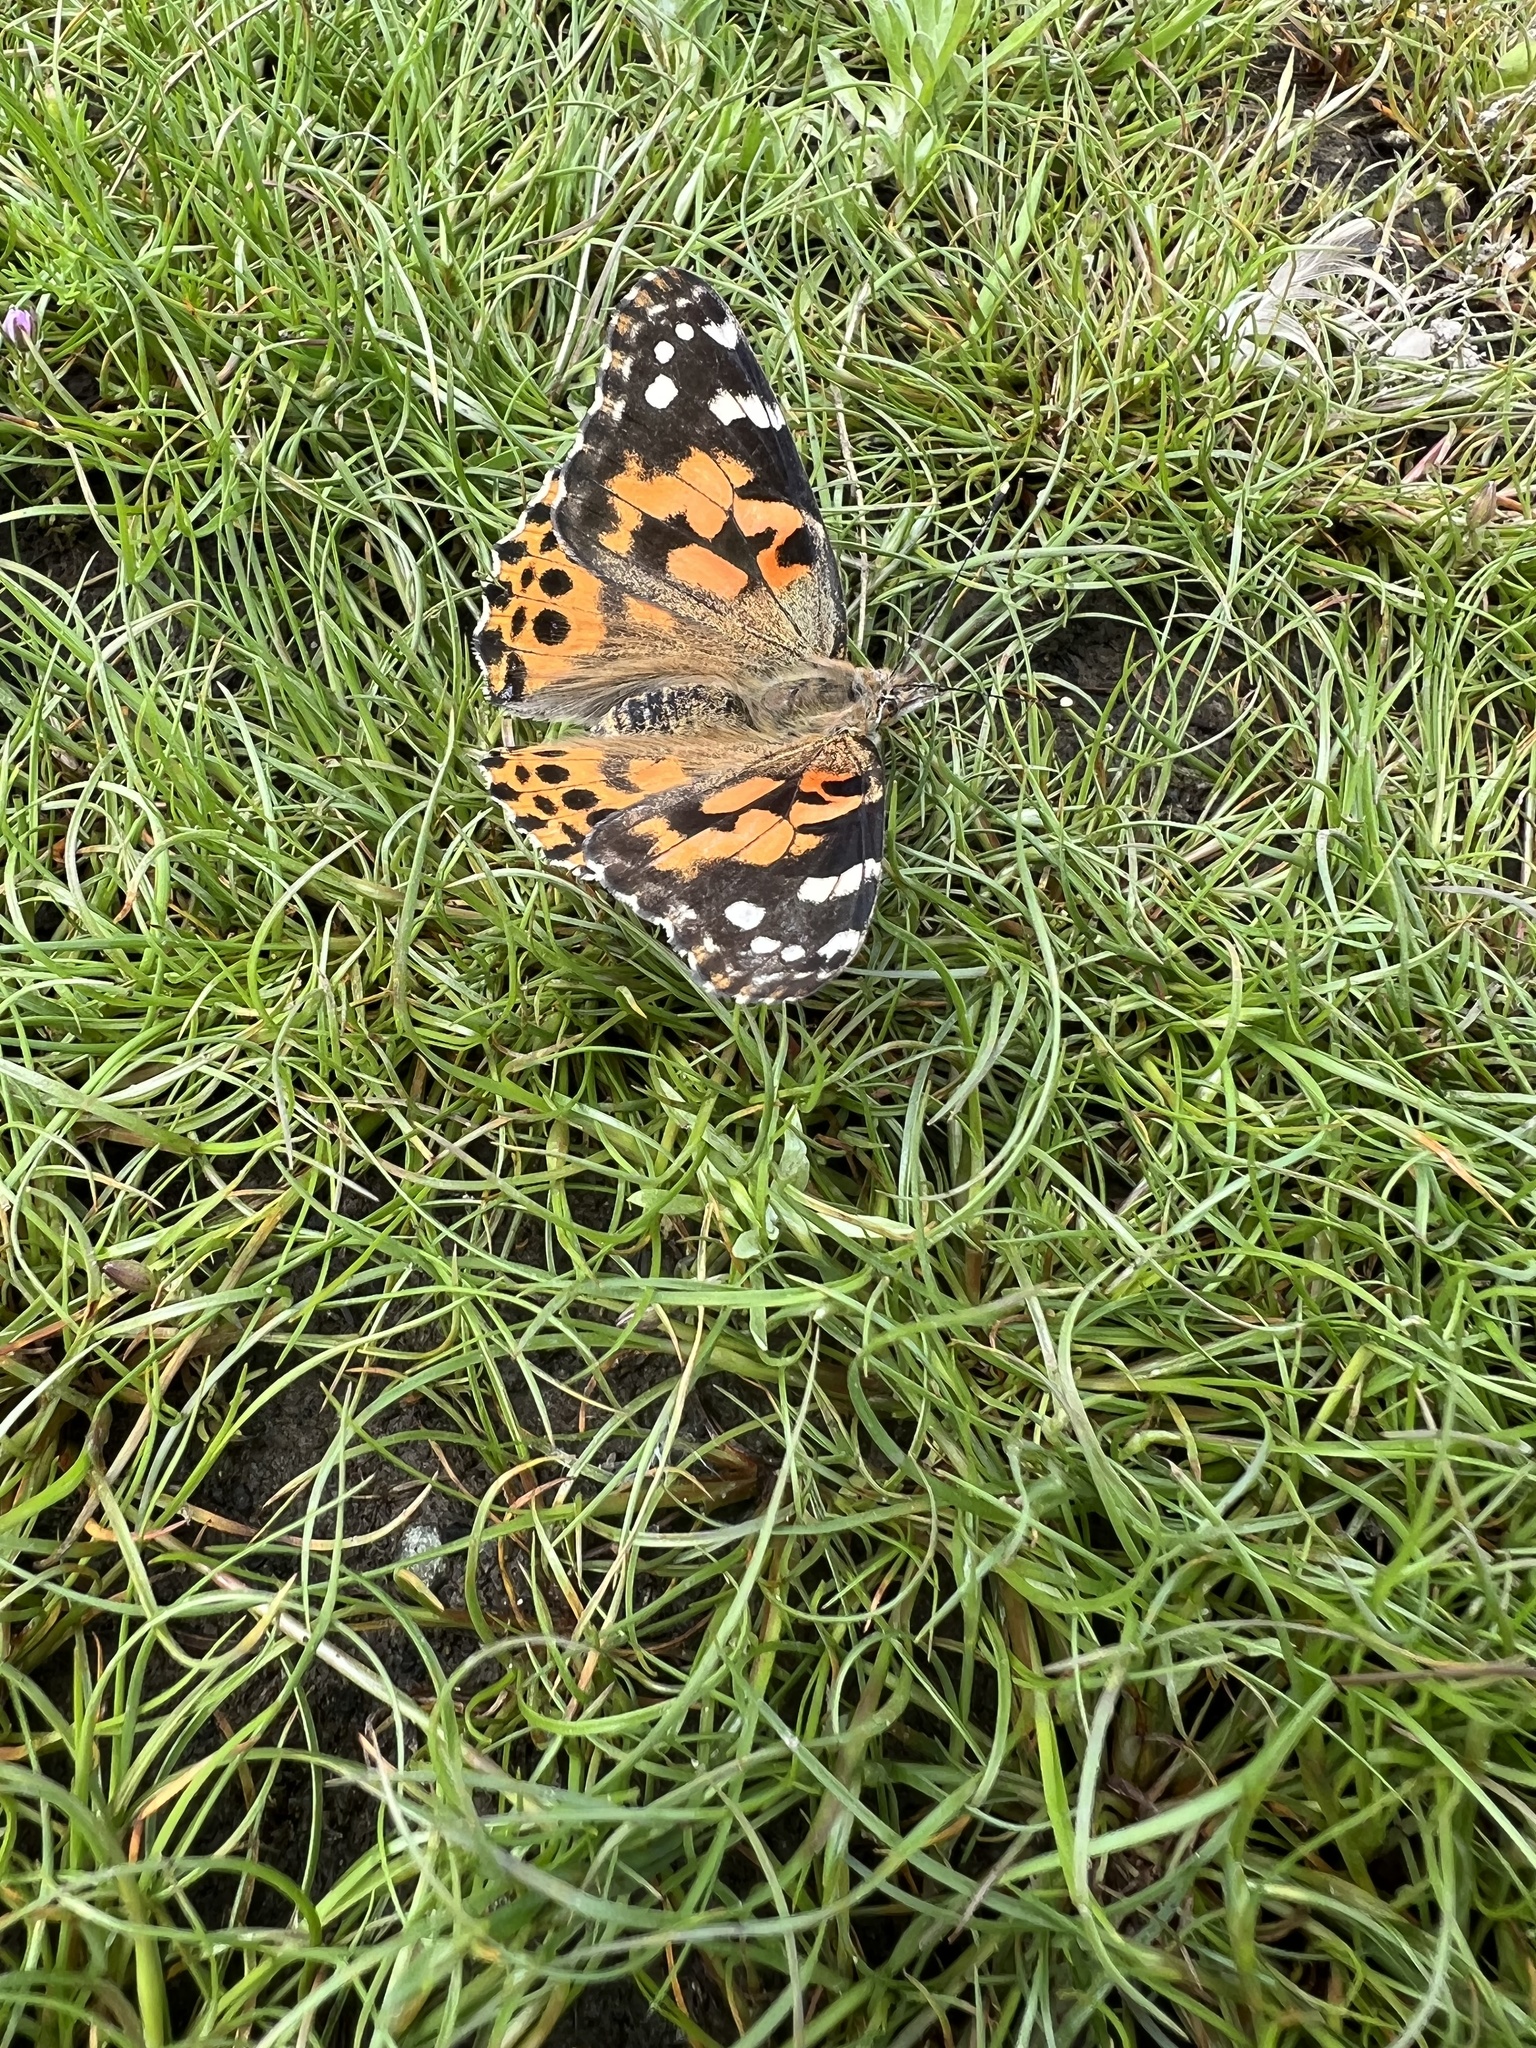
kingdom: Animalia
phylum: Arthropoda
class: Insecta
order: Lepidoptera
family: Nymphalidae
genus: Vanessa
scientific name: Vanessa cardui
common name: Painted lady
